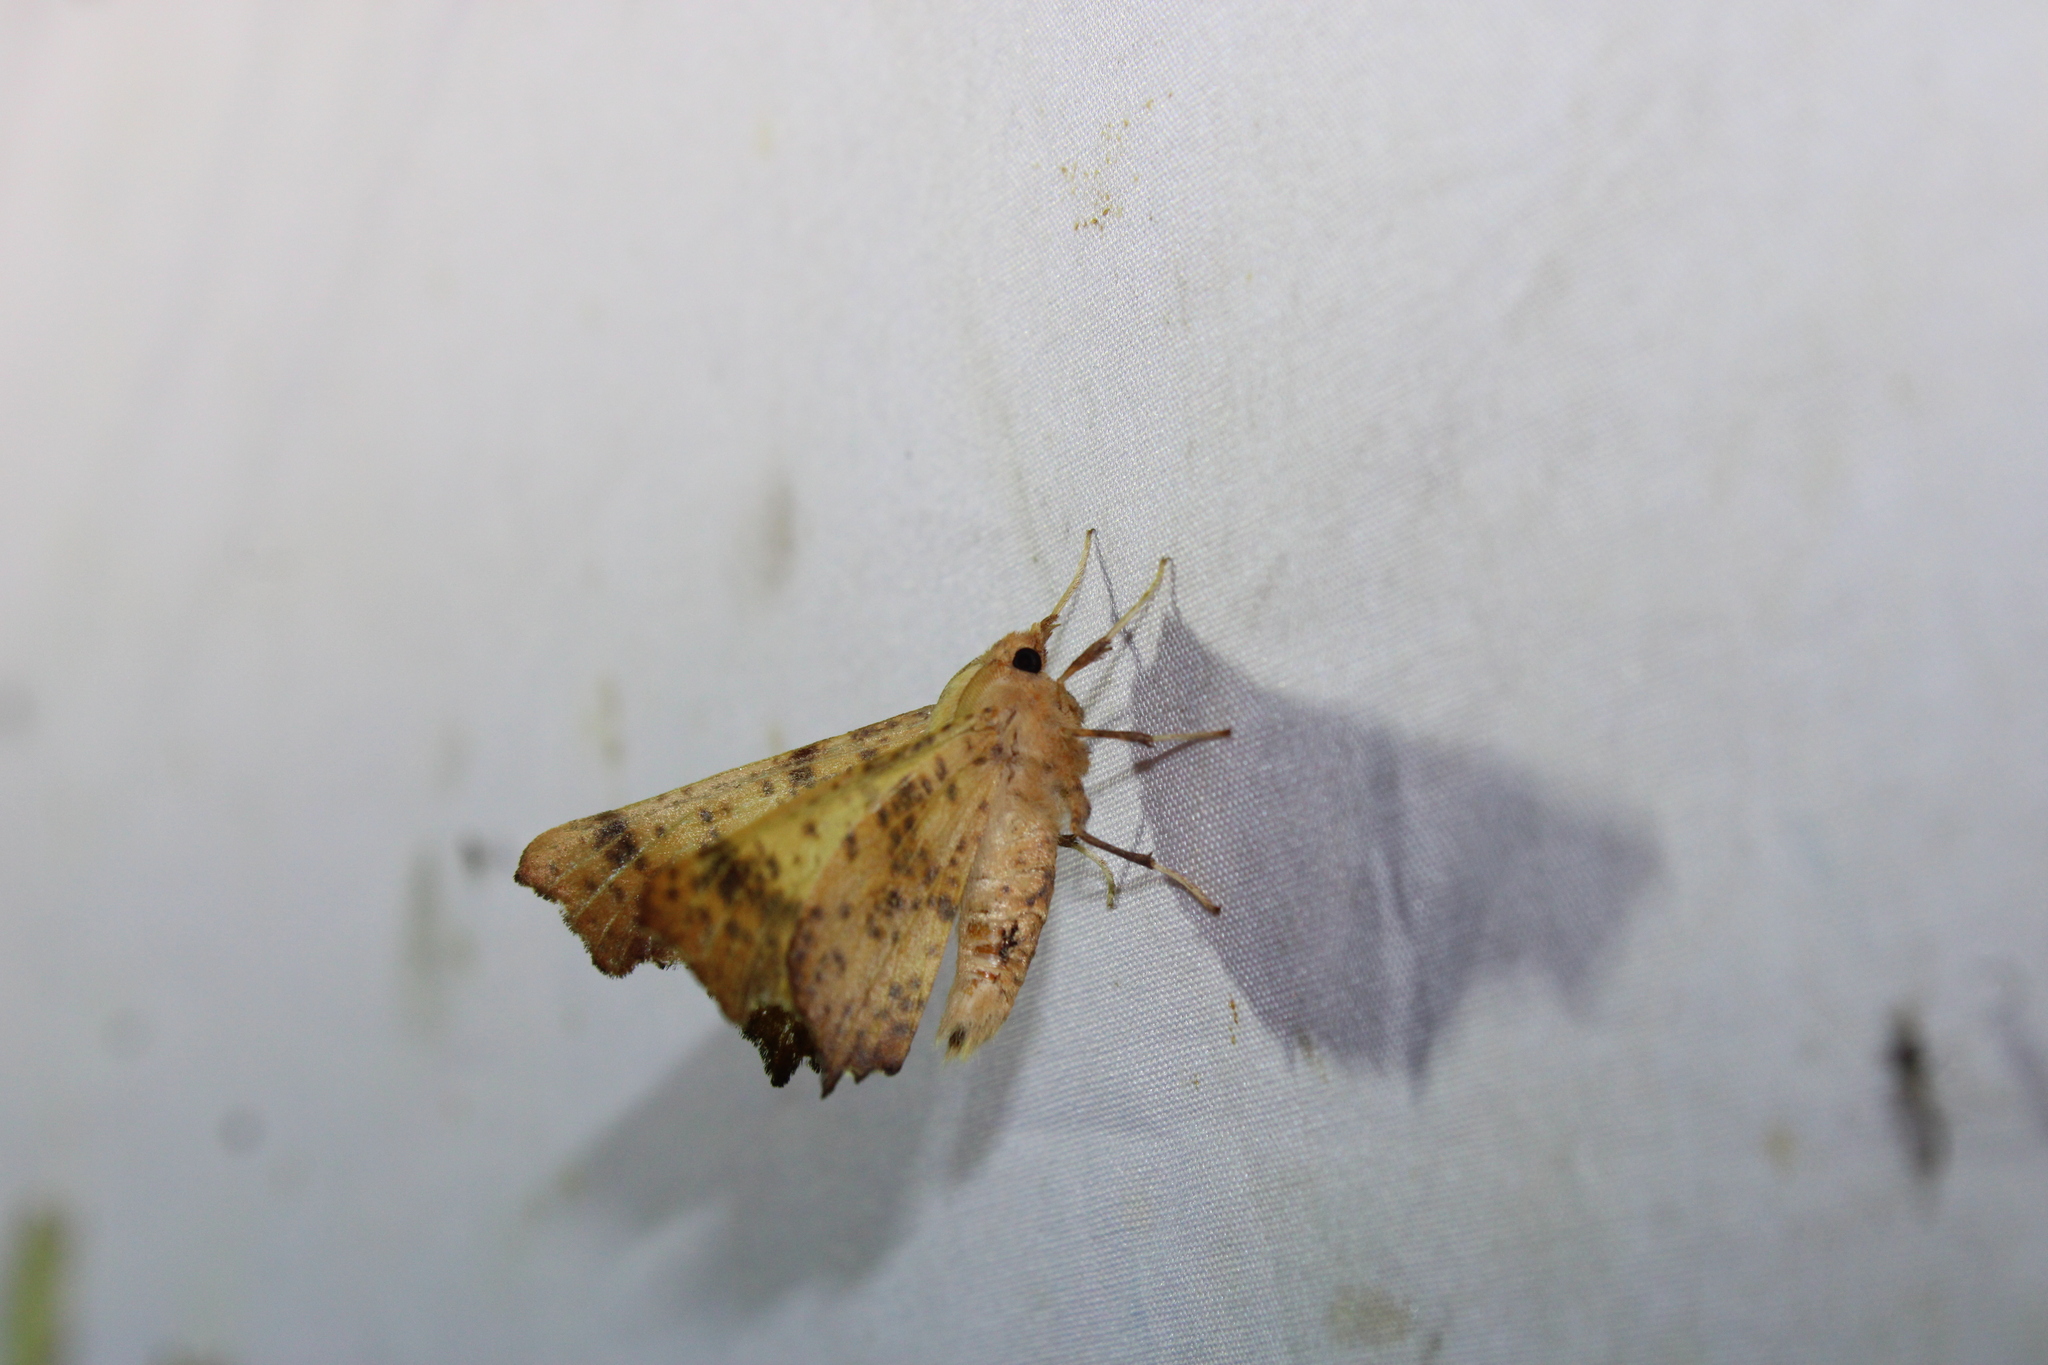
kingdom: Animalia
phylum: Arthropoda
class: Insecta
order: Lepidoptera
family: Geometridae
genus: Ennomos
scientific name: Ennomos magnaria
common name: Maple spanworm
